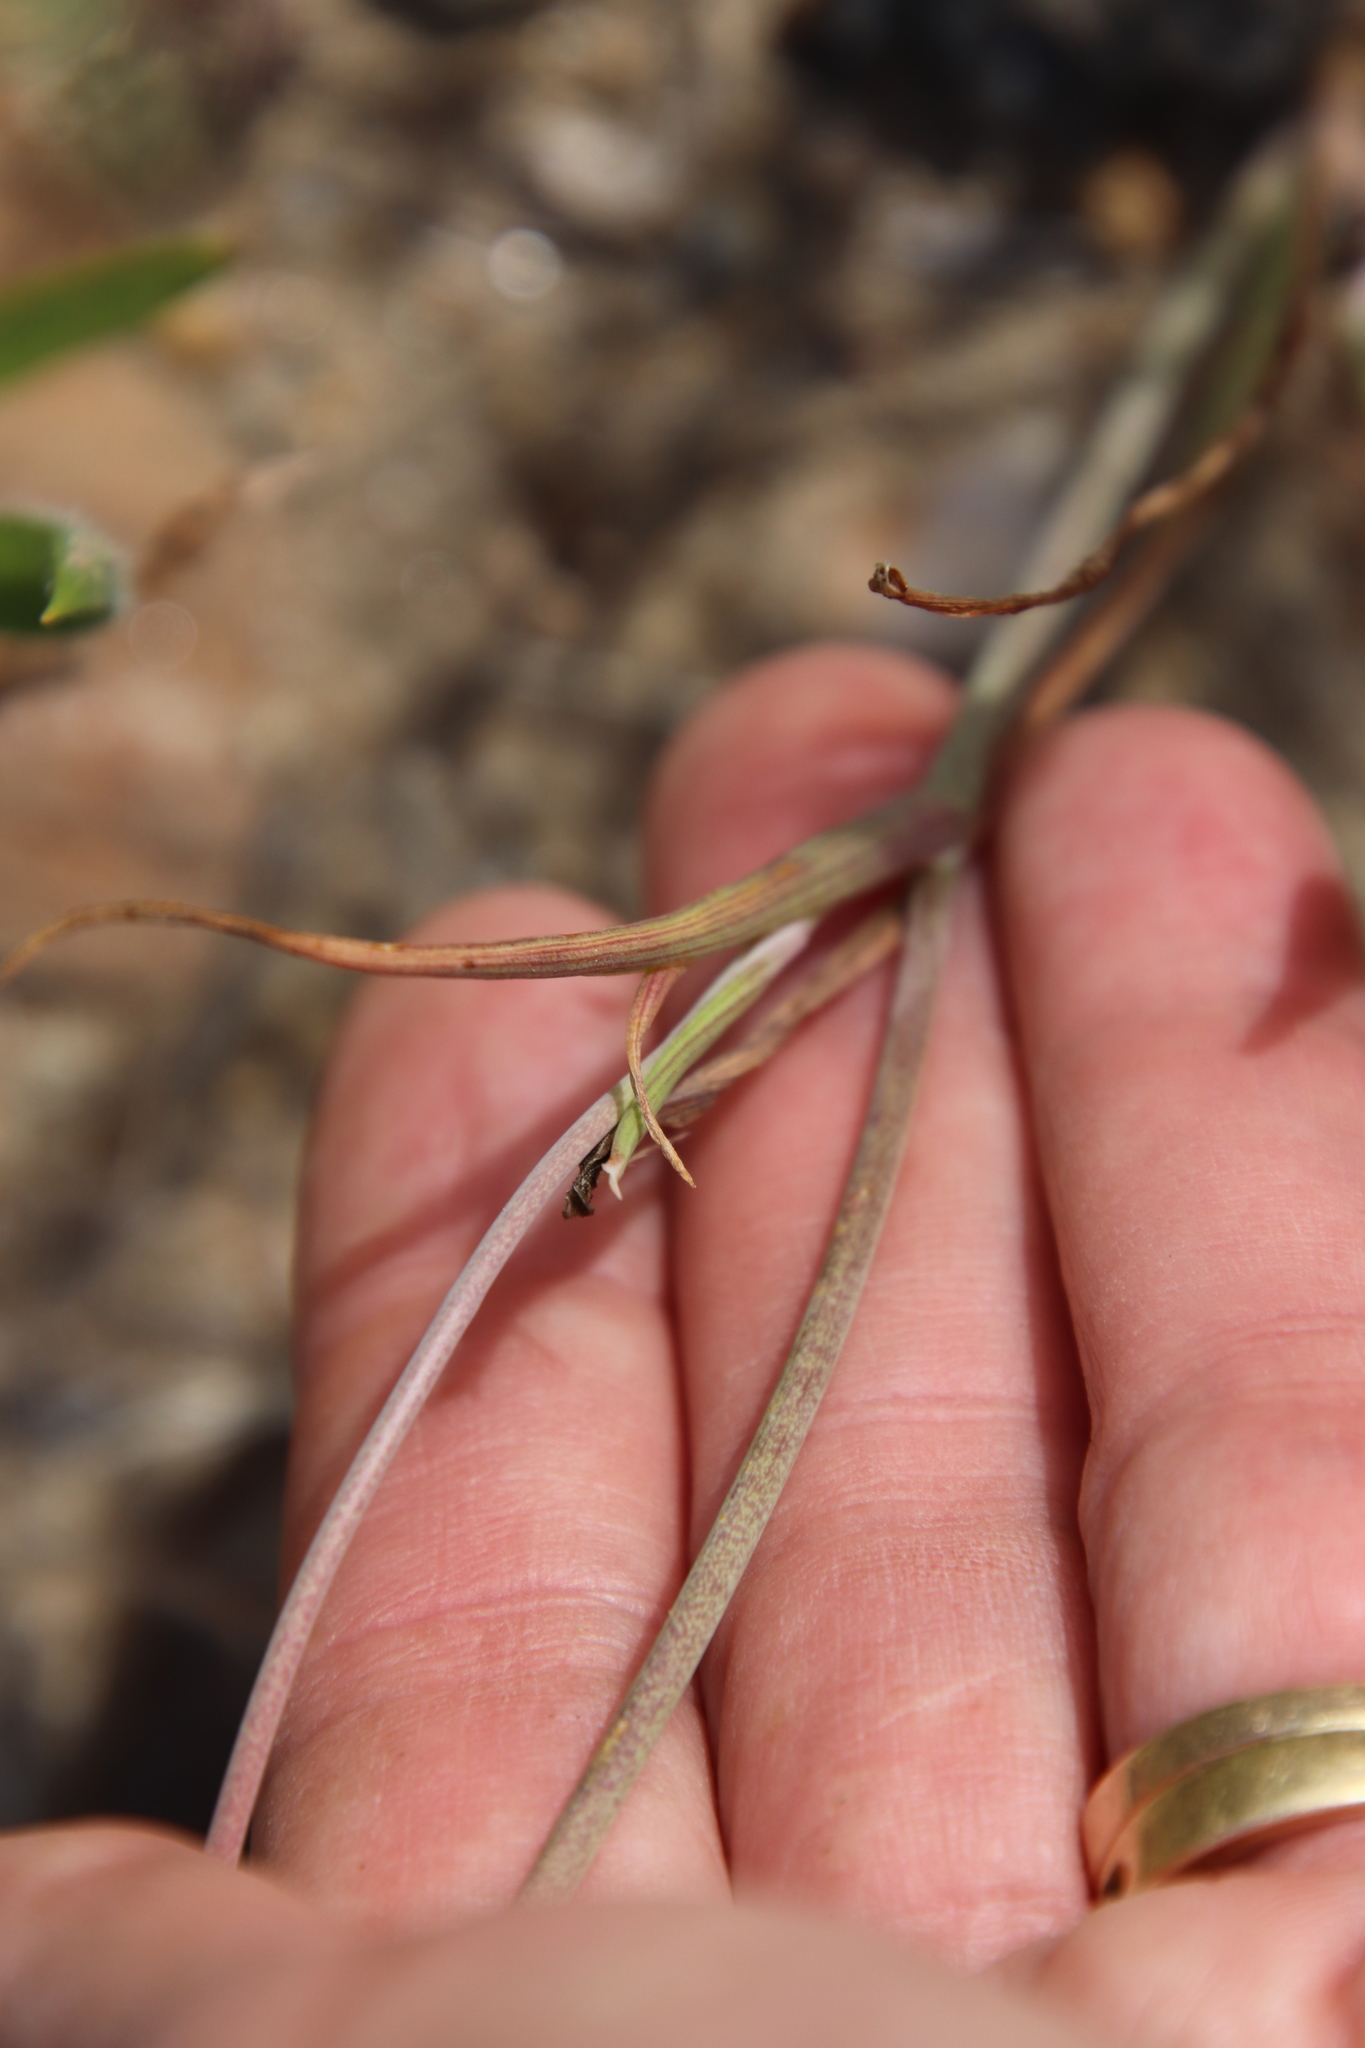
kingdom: Plantae
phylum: Tracheophyta
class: Liliopsida
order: Liliales
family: Liliaceae
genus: Calochortus
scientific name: Calochortus splendens
